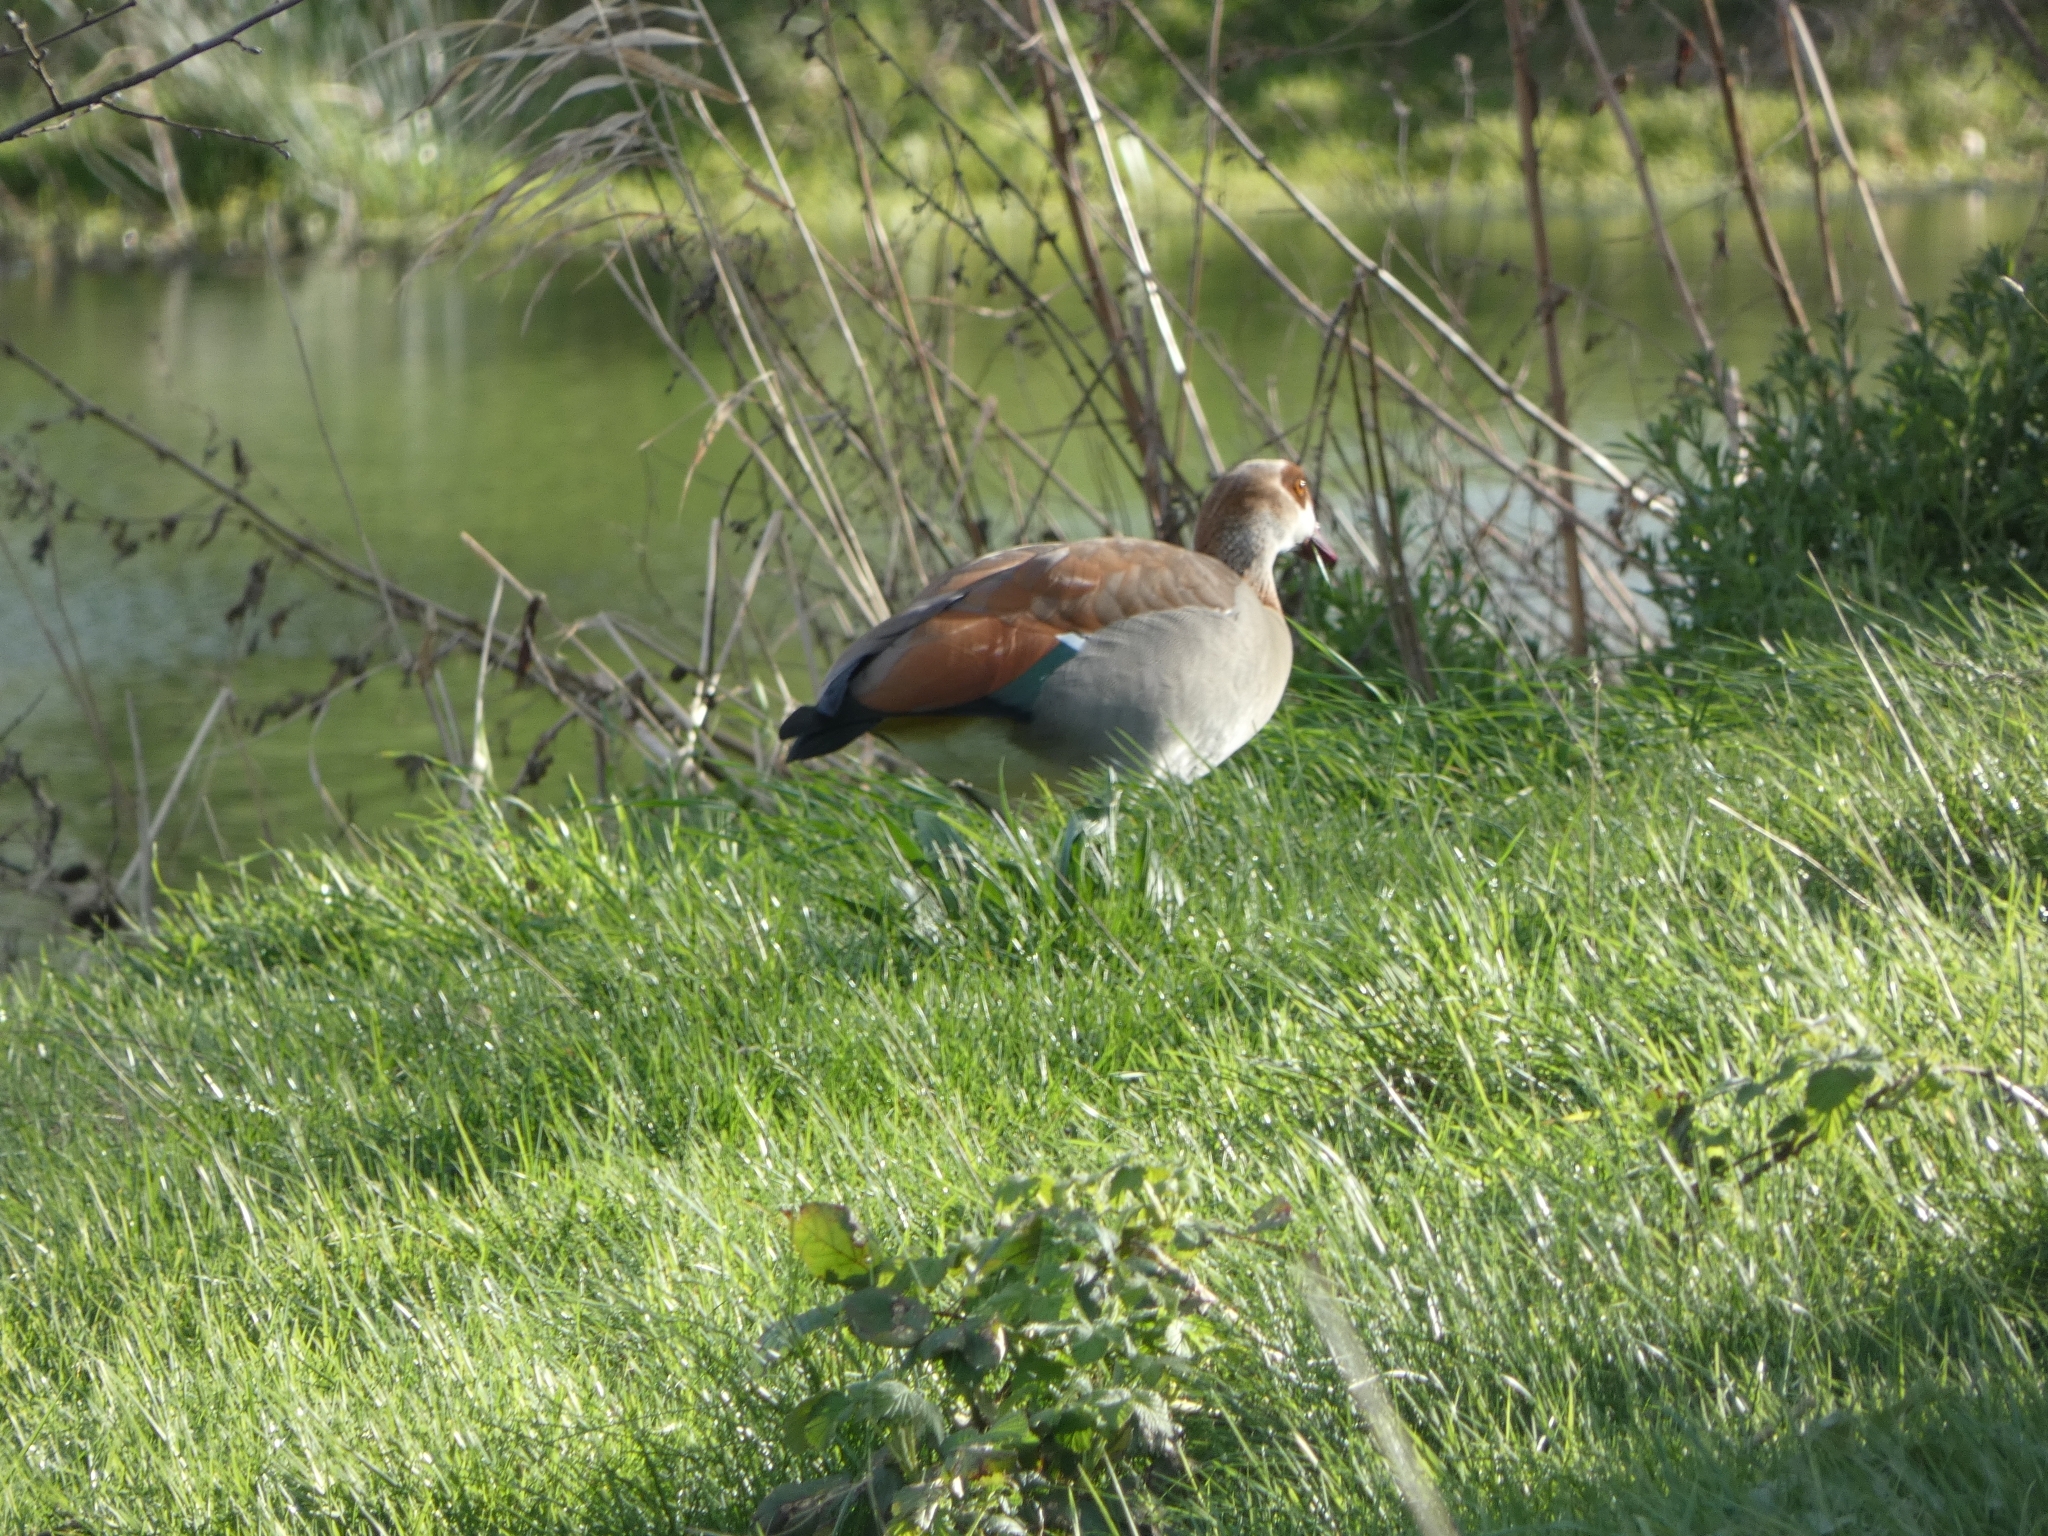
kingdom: Animalia
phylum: Chordata
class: Aves
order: Anseriformes
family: Anatidae
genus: Alopochen
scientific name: Alopochen aegyptiaca
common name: Egyptian goose
